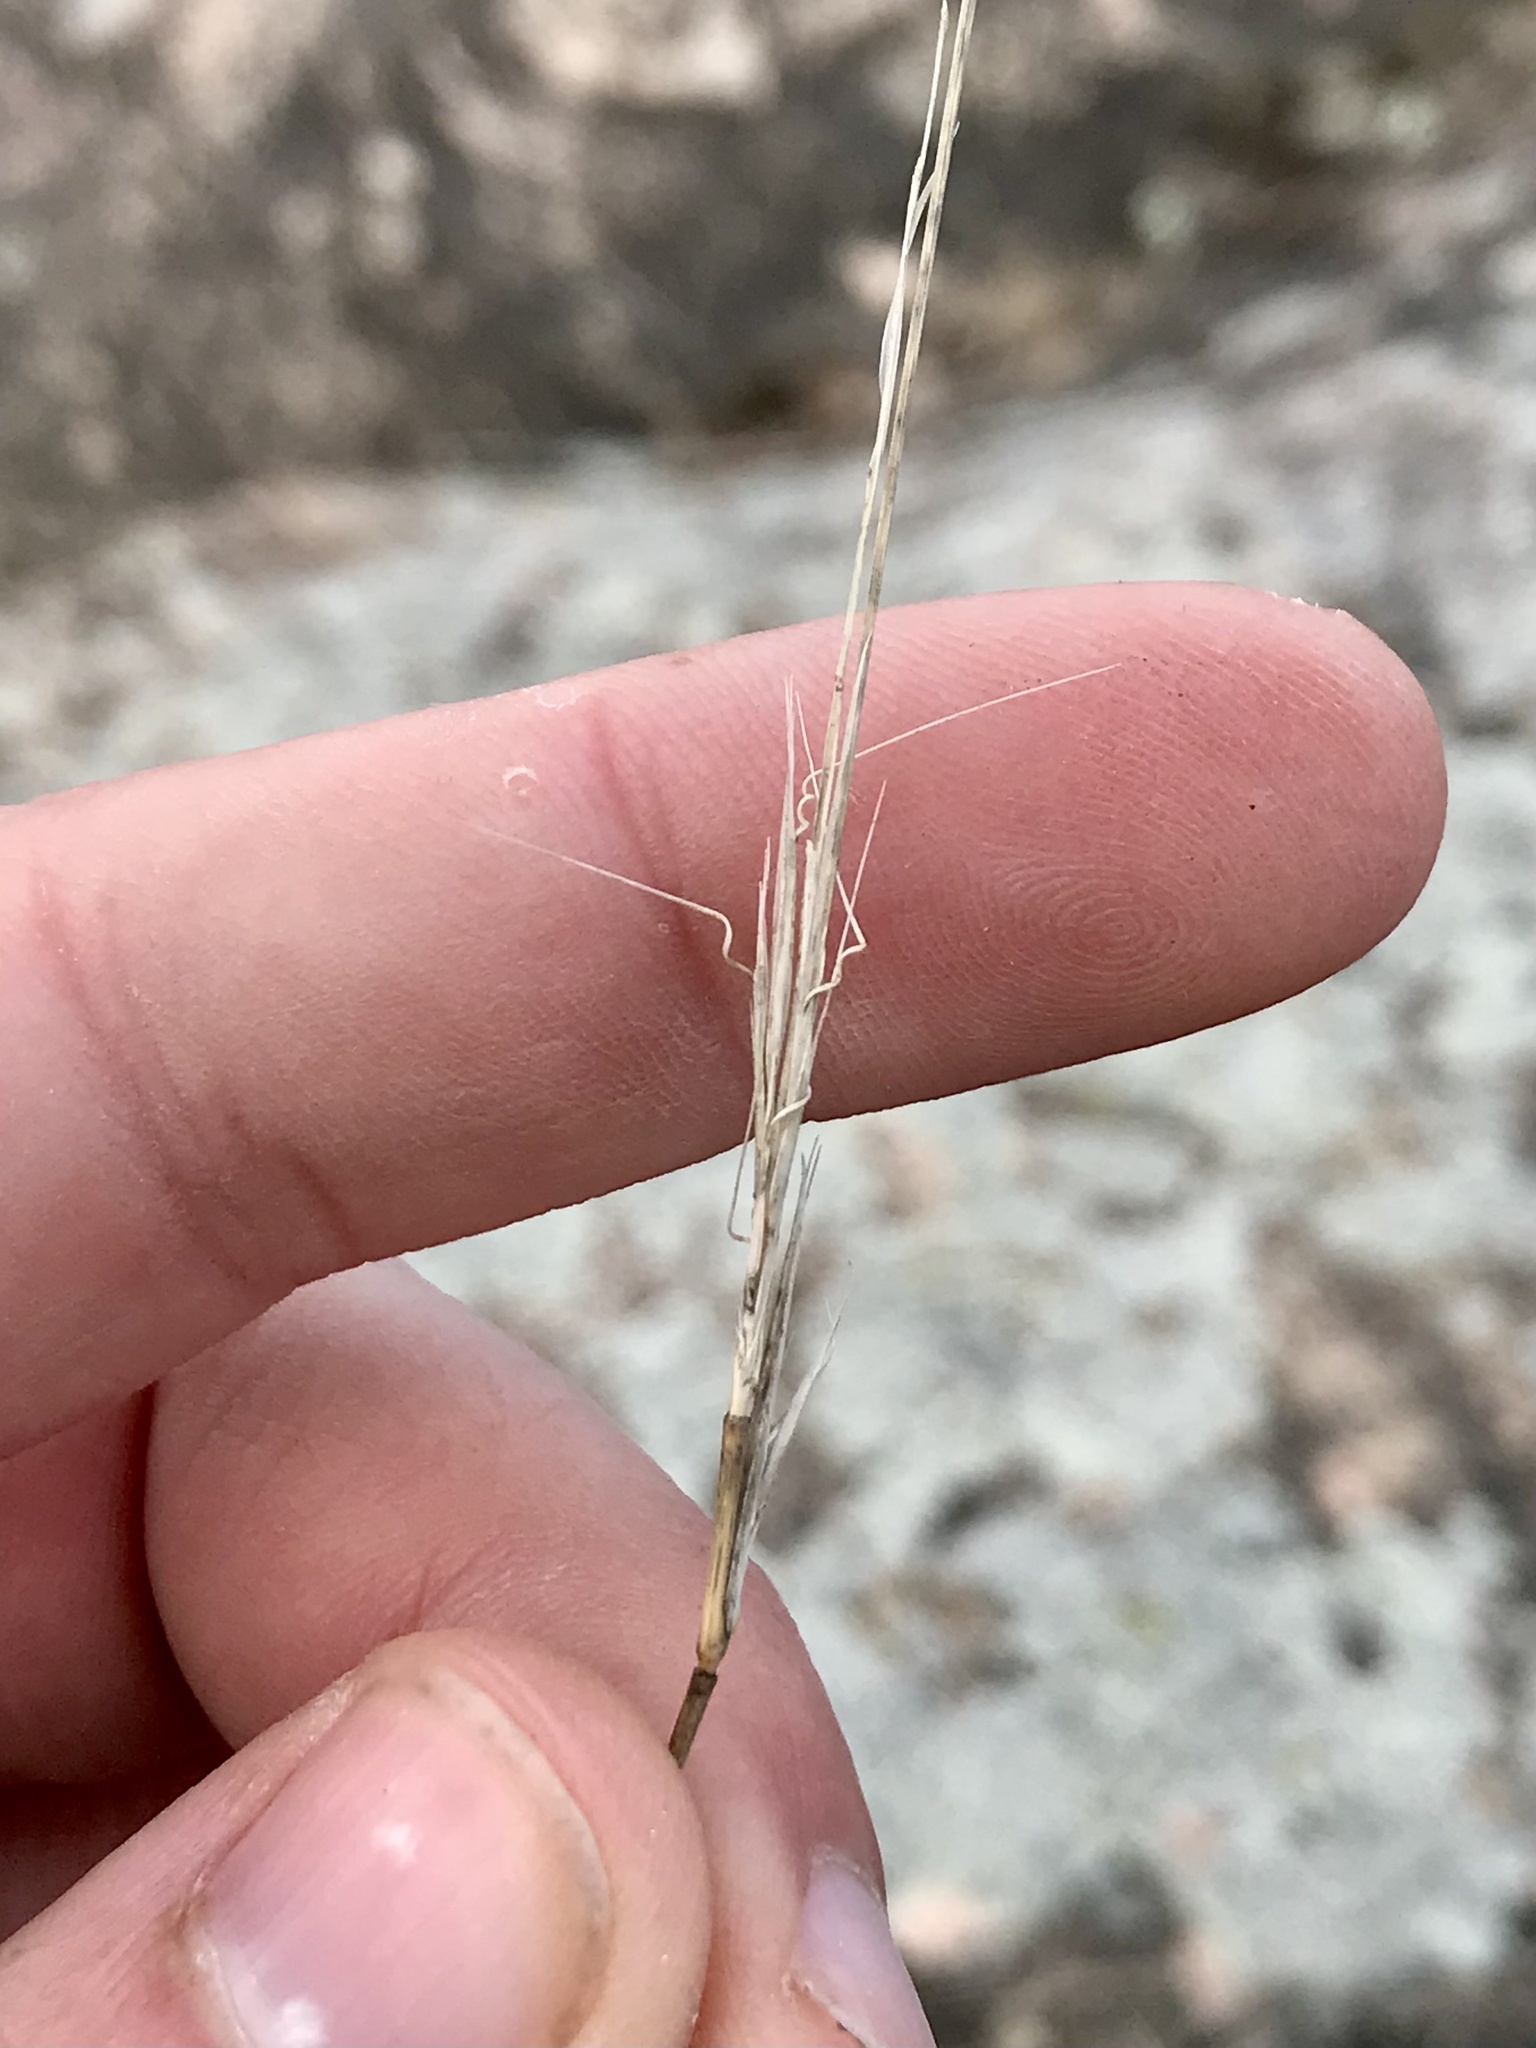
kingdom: Plantae
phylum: Tracheophyta
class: Liliopsida
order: Poales
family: Poaceae
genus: Aristida
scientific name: Aristida dichotoma
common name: Churchmouse three-awn
